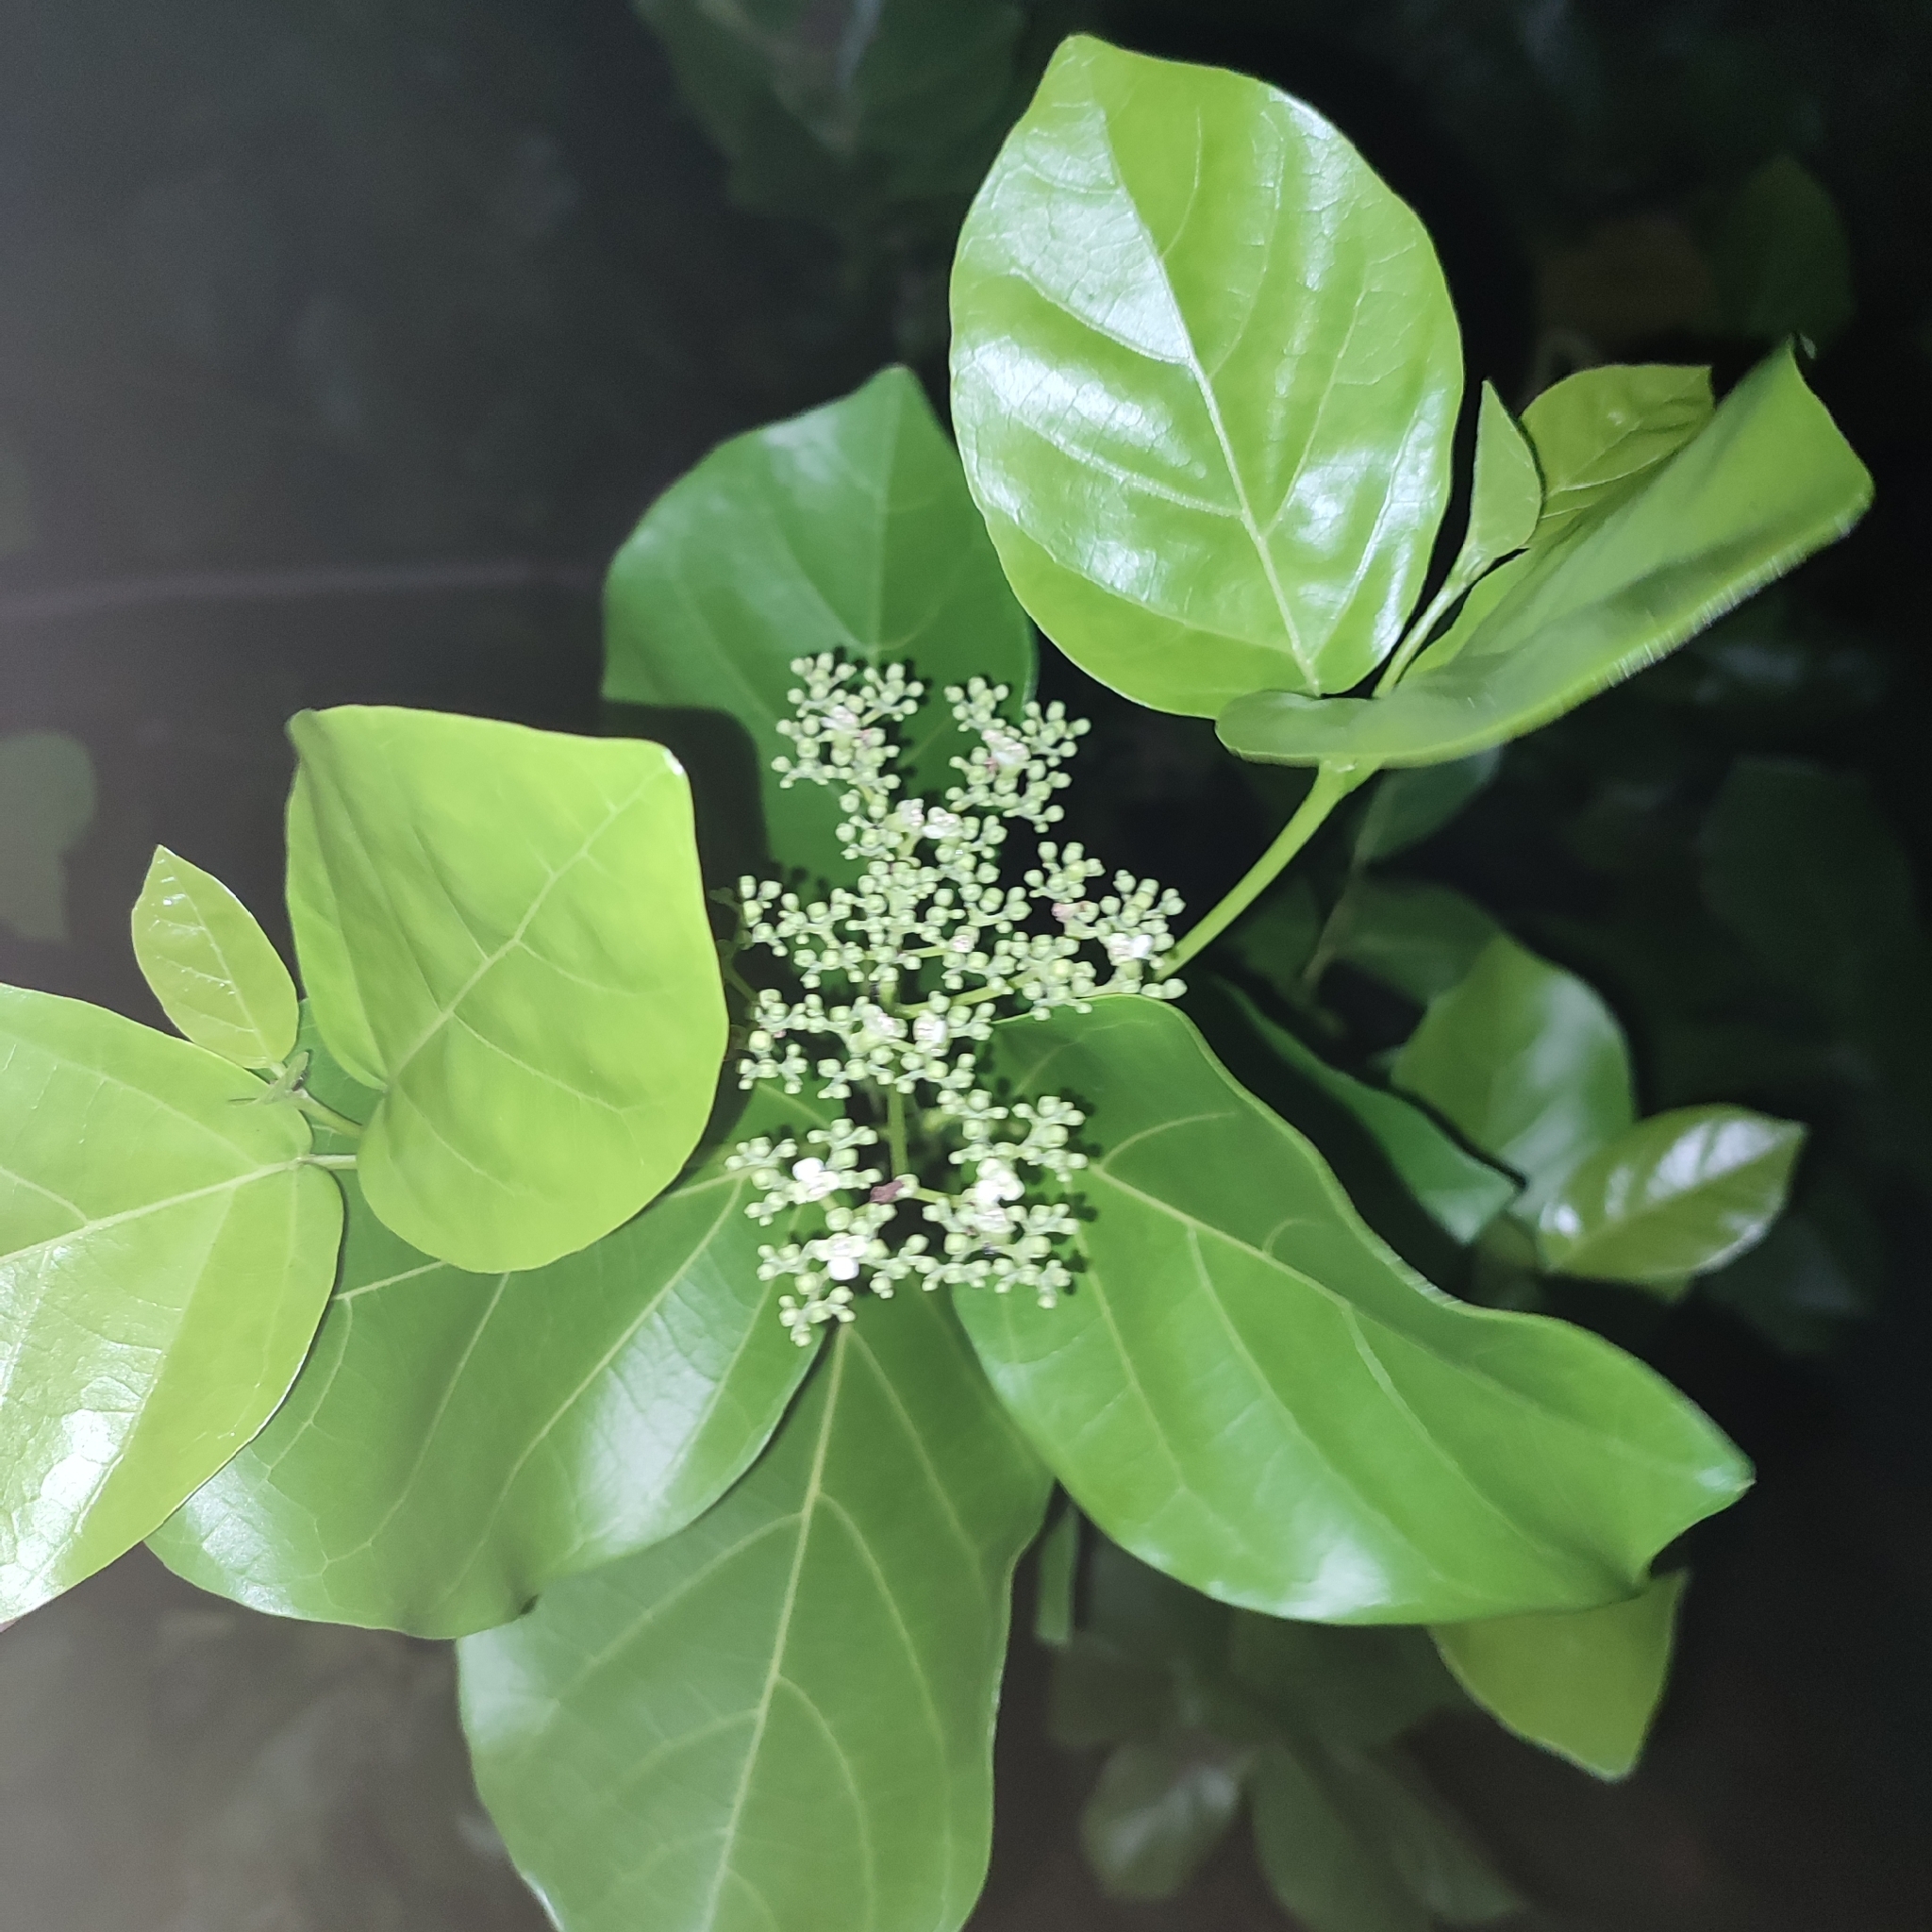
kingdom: Plantae
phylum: Tracheophyta
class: Magnoliopsida
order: Lamiales
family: Lamiaceae
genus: Premna
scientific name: Premna serratifolia
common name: Bastard guelder
